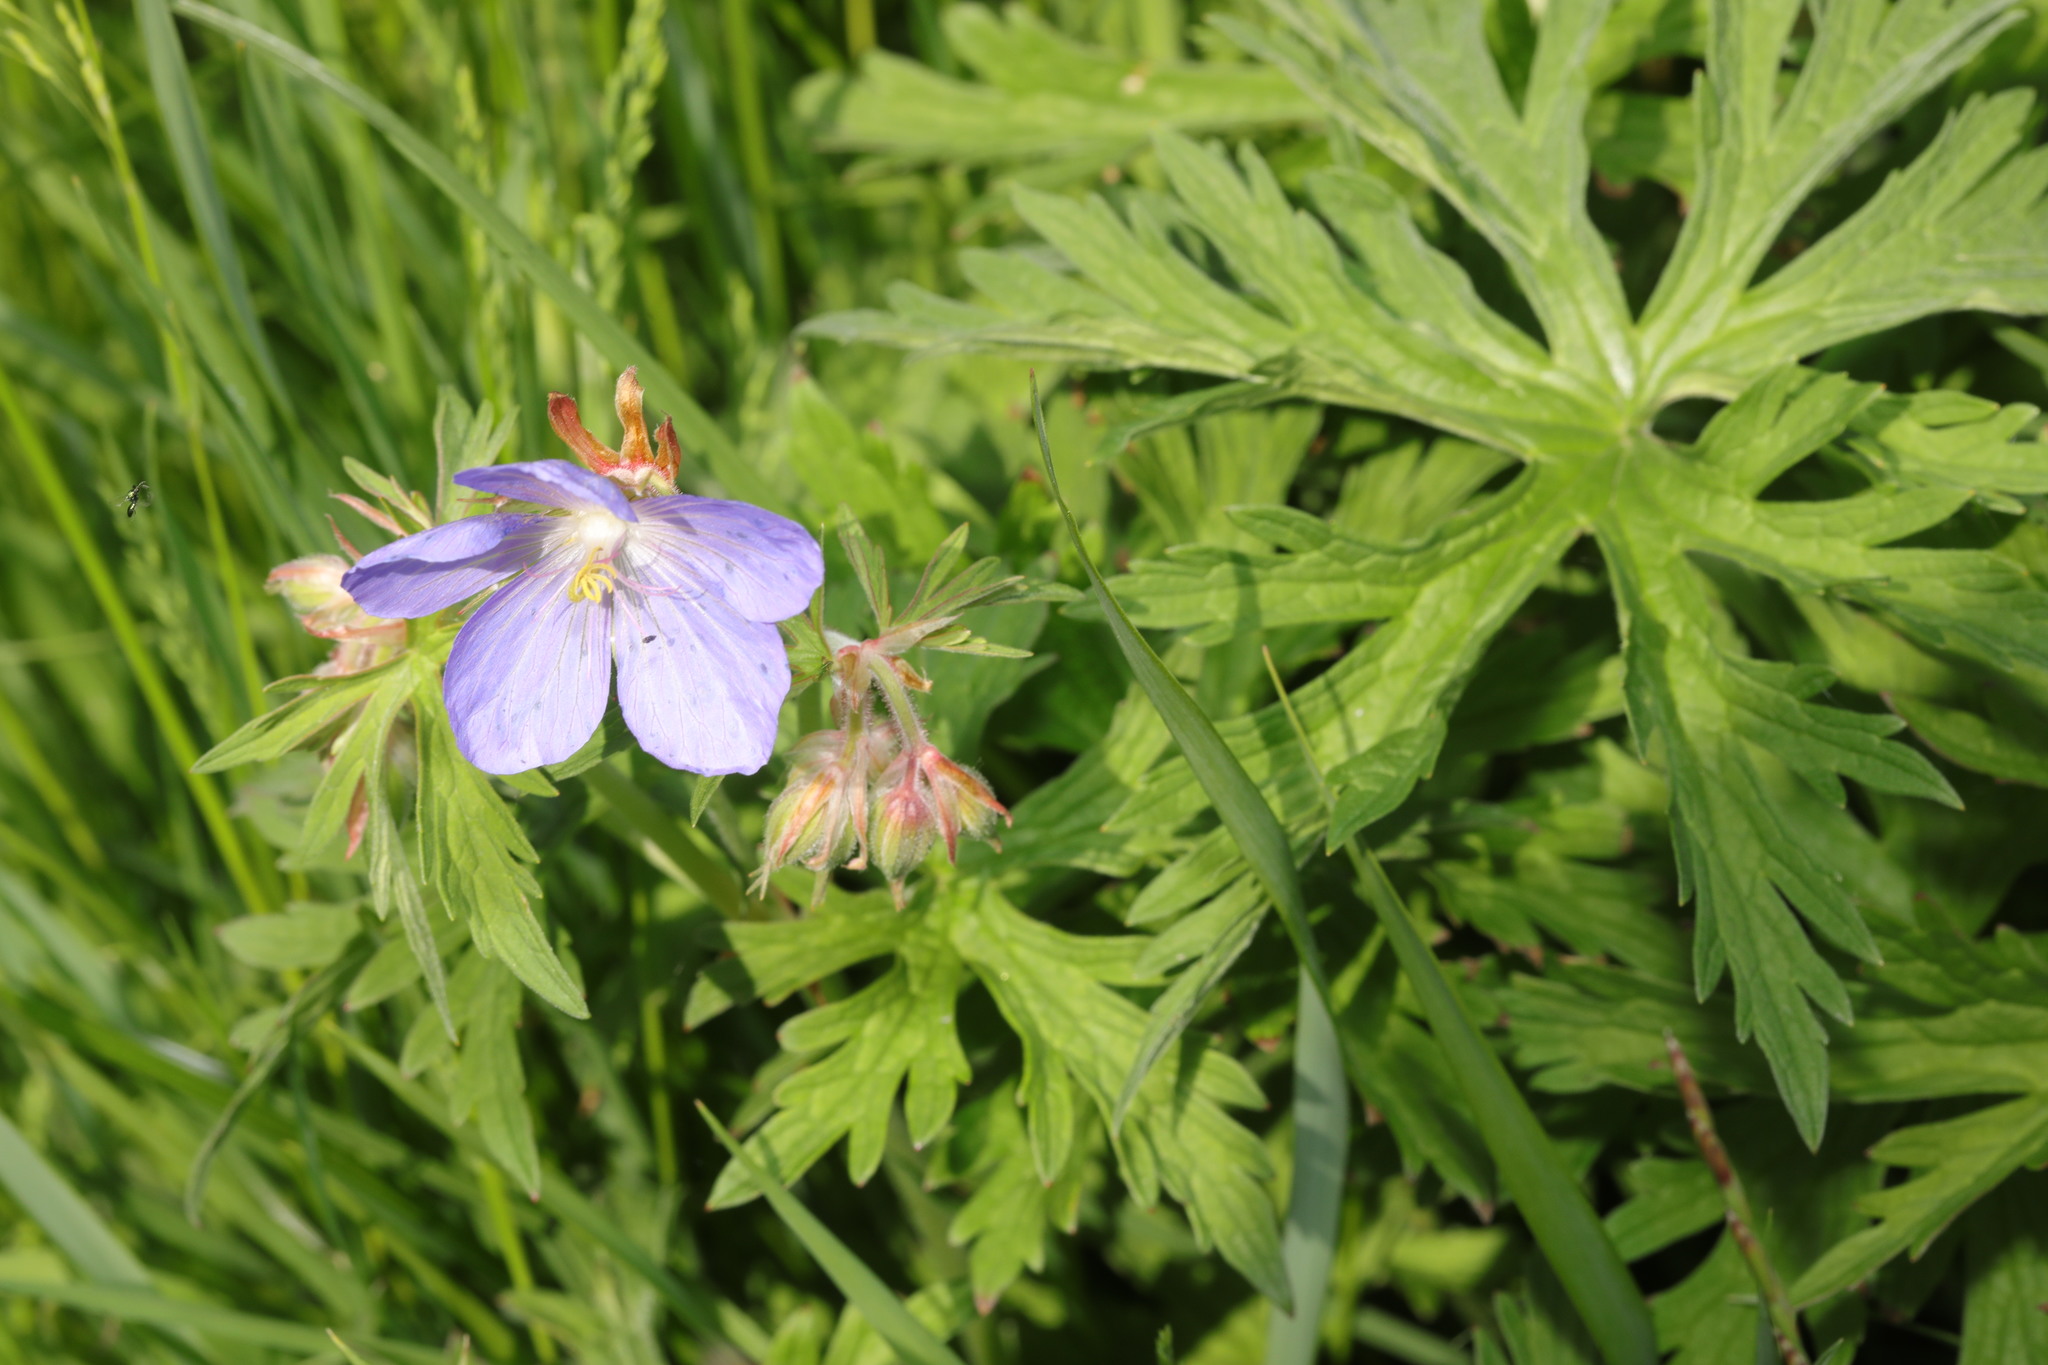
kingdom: Plantae
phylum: Tracheophyta
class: Magnoliopsida
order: Geraniales
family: Geraniaceae
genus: Geranium
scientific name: Geranium pratense
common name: Meadow crane's-bill
